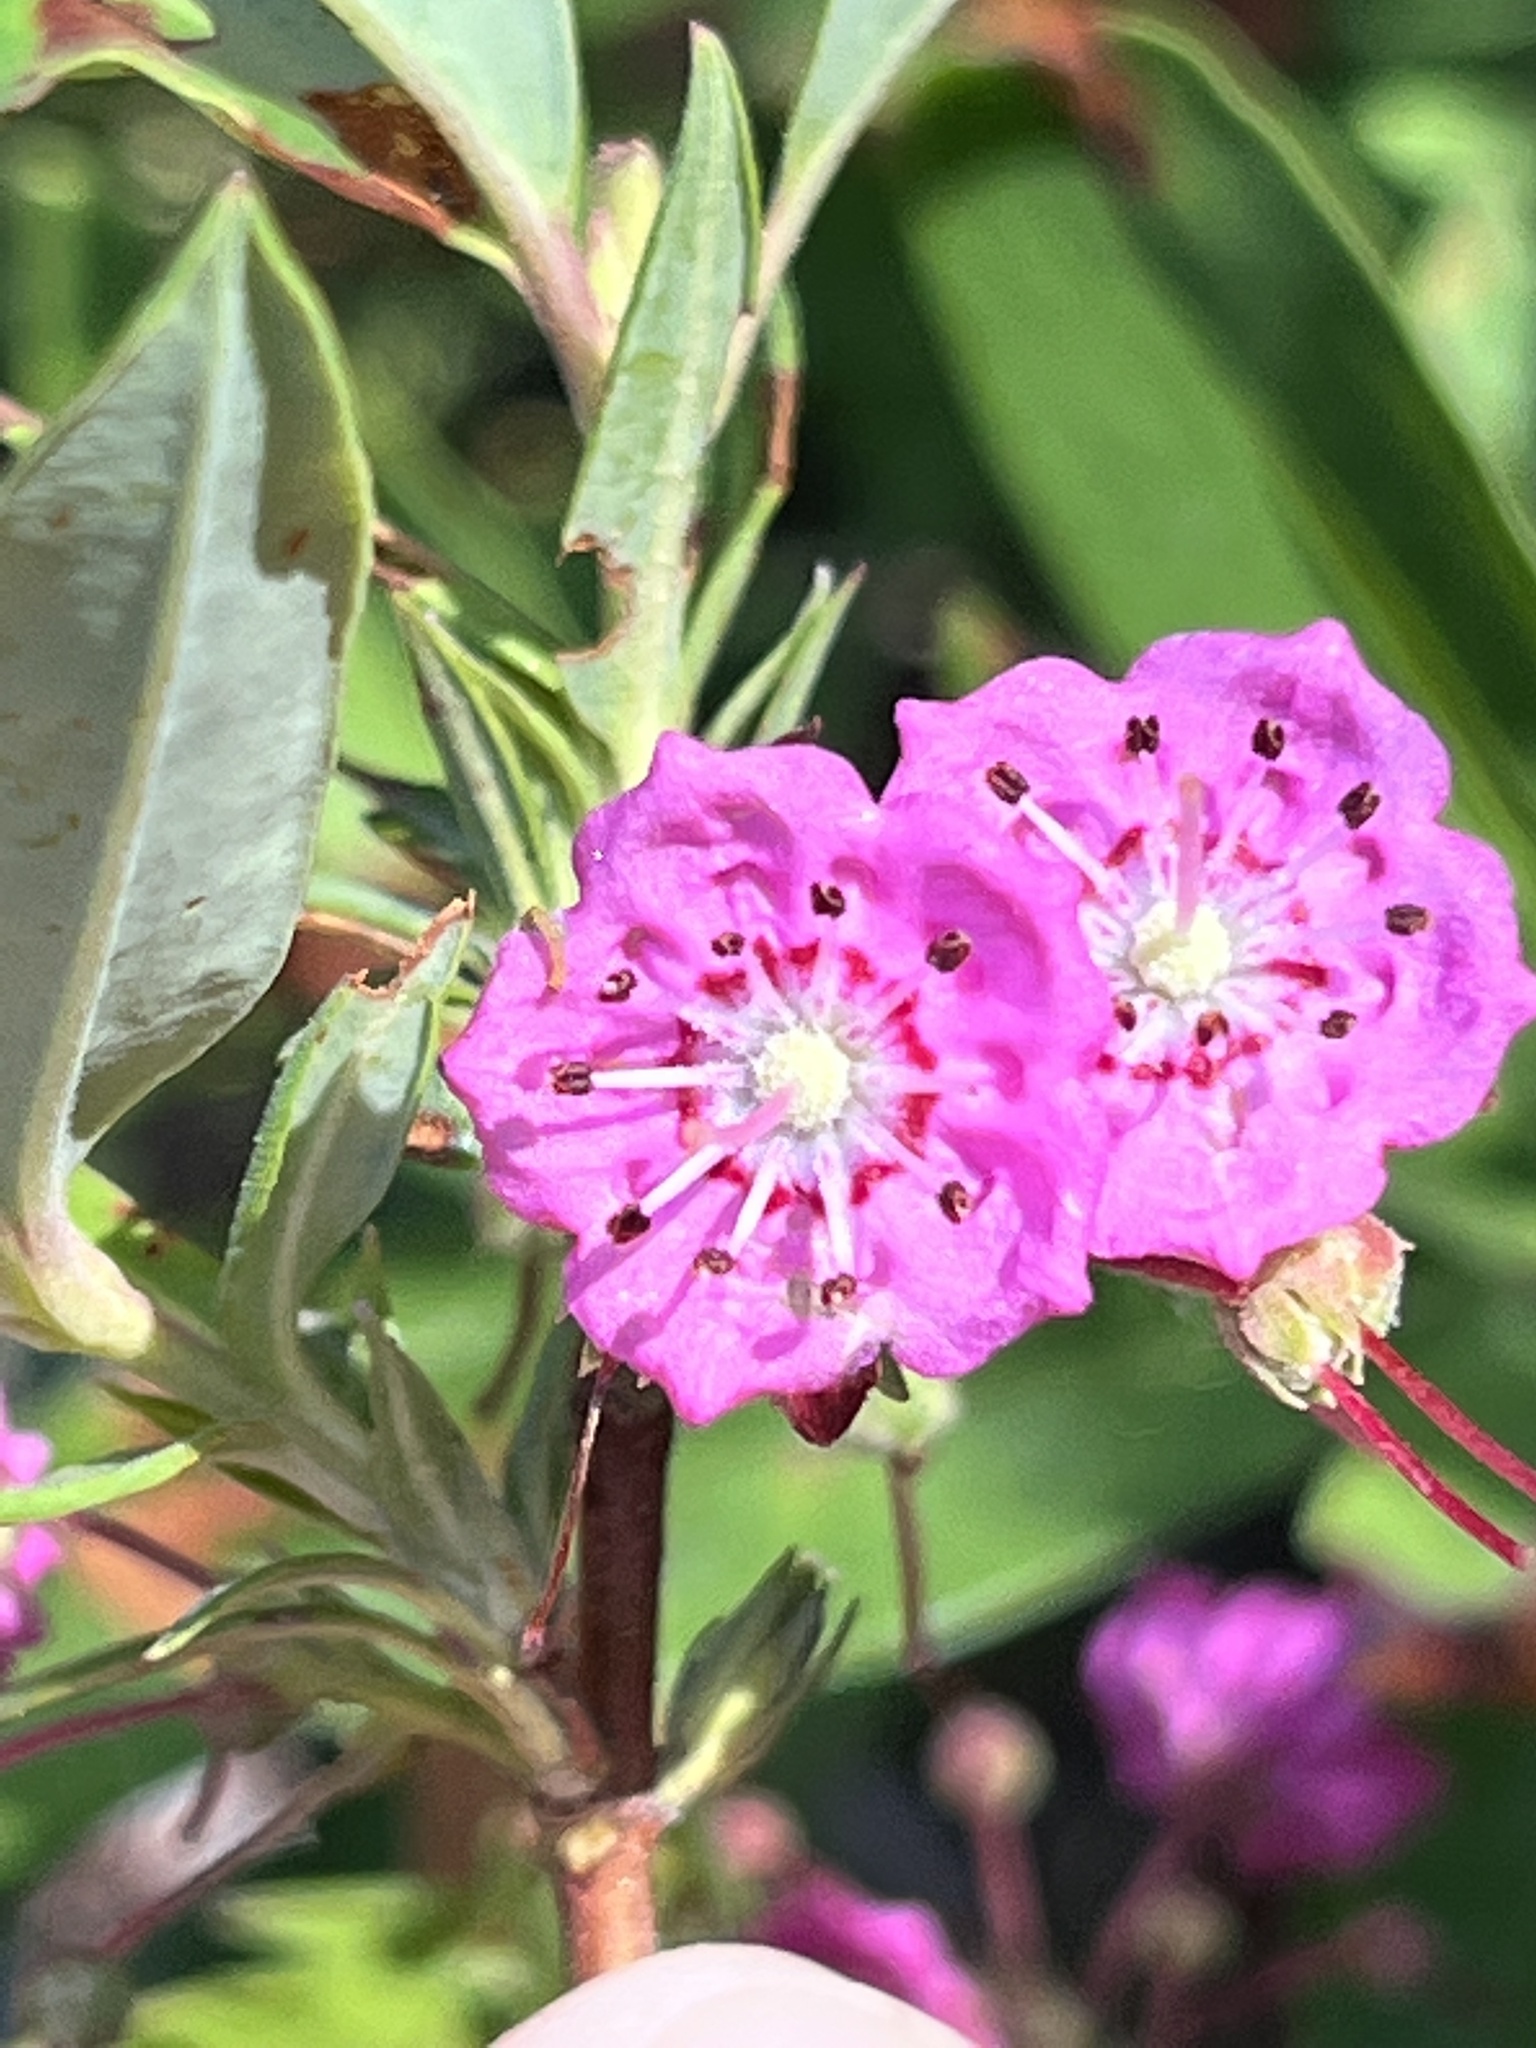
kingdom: Plantae
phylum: Tracheophyta
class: Magnoliopsida
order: Ericales
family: Ericaceae
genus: Kalmia
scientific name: Kalmia angustifolia
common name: Sheep-laurel
